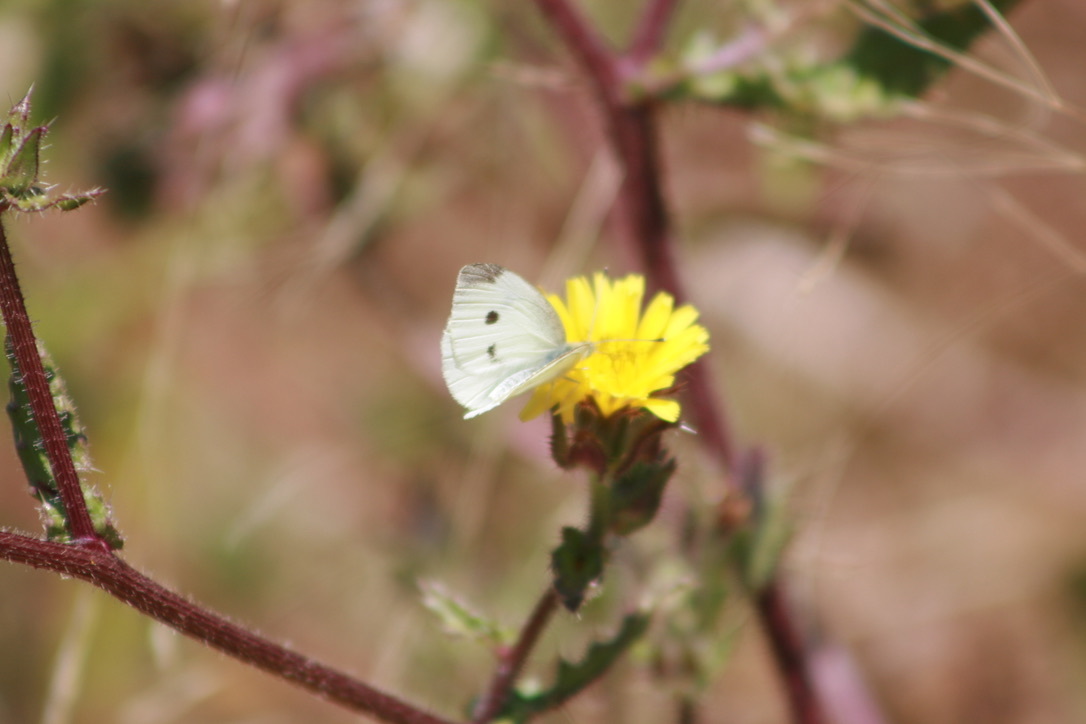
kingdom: Animalia
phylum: Arthropoda
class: Insecta
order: Lepidoptera
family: Pieridae
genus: Pieris
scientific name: Pieris rapae
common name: Small white
